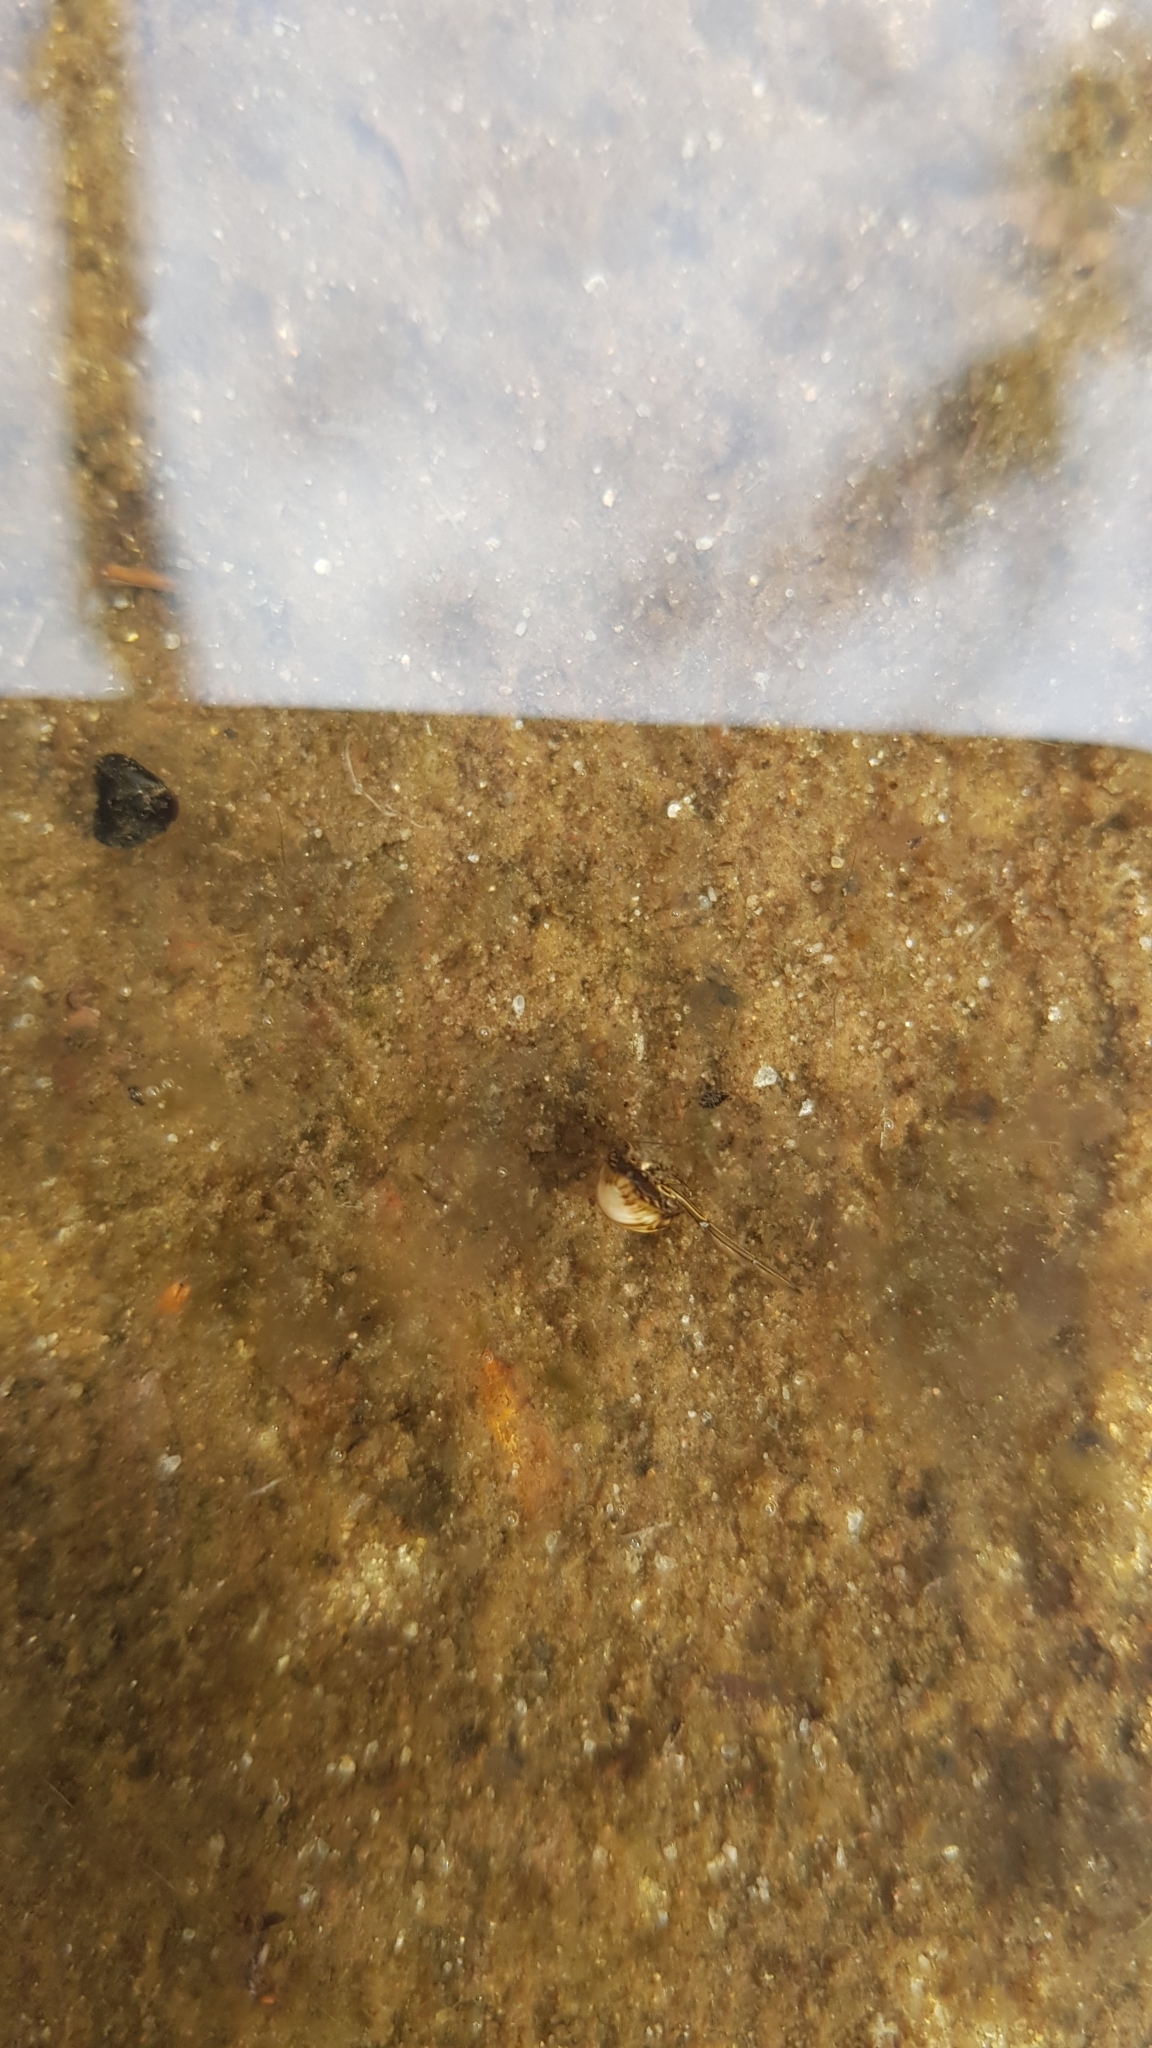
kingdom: Animalia
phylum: Arthropoda
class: Insecta
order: Hemiptera
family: Notonectidae
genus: Enithares
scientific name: Enithares
